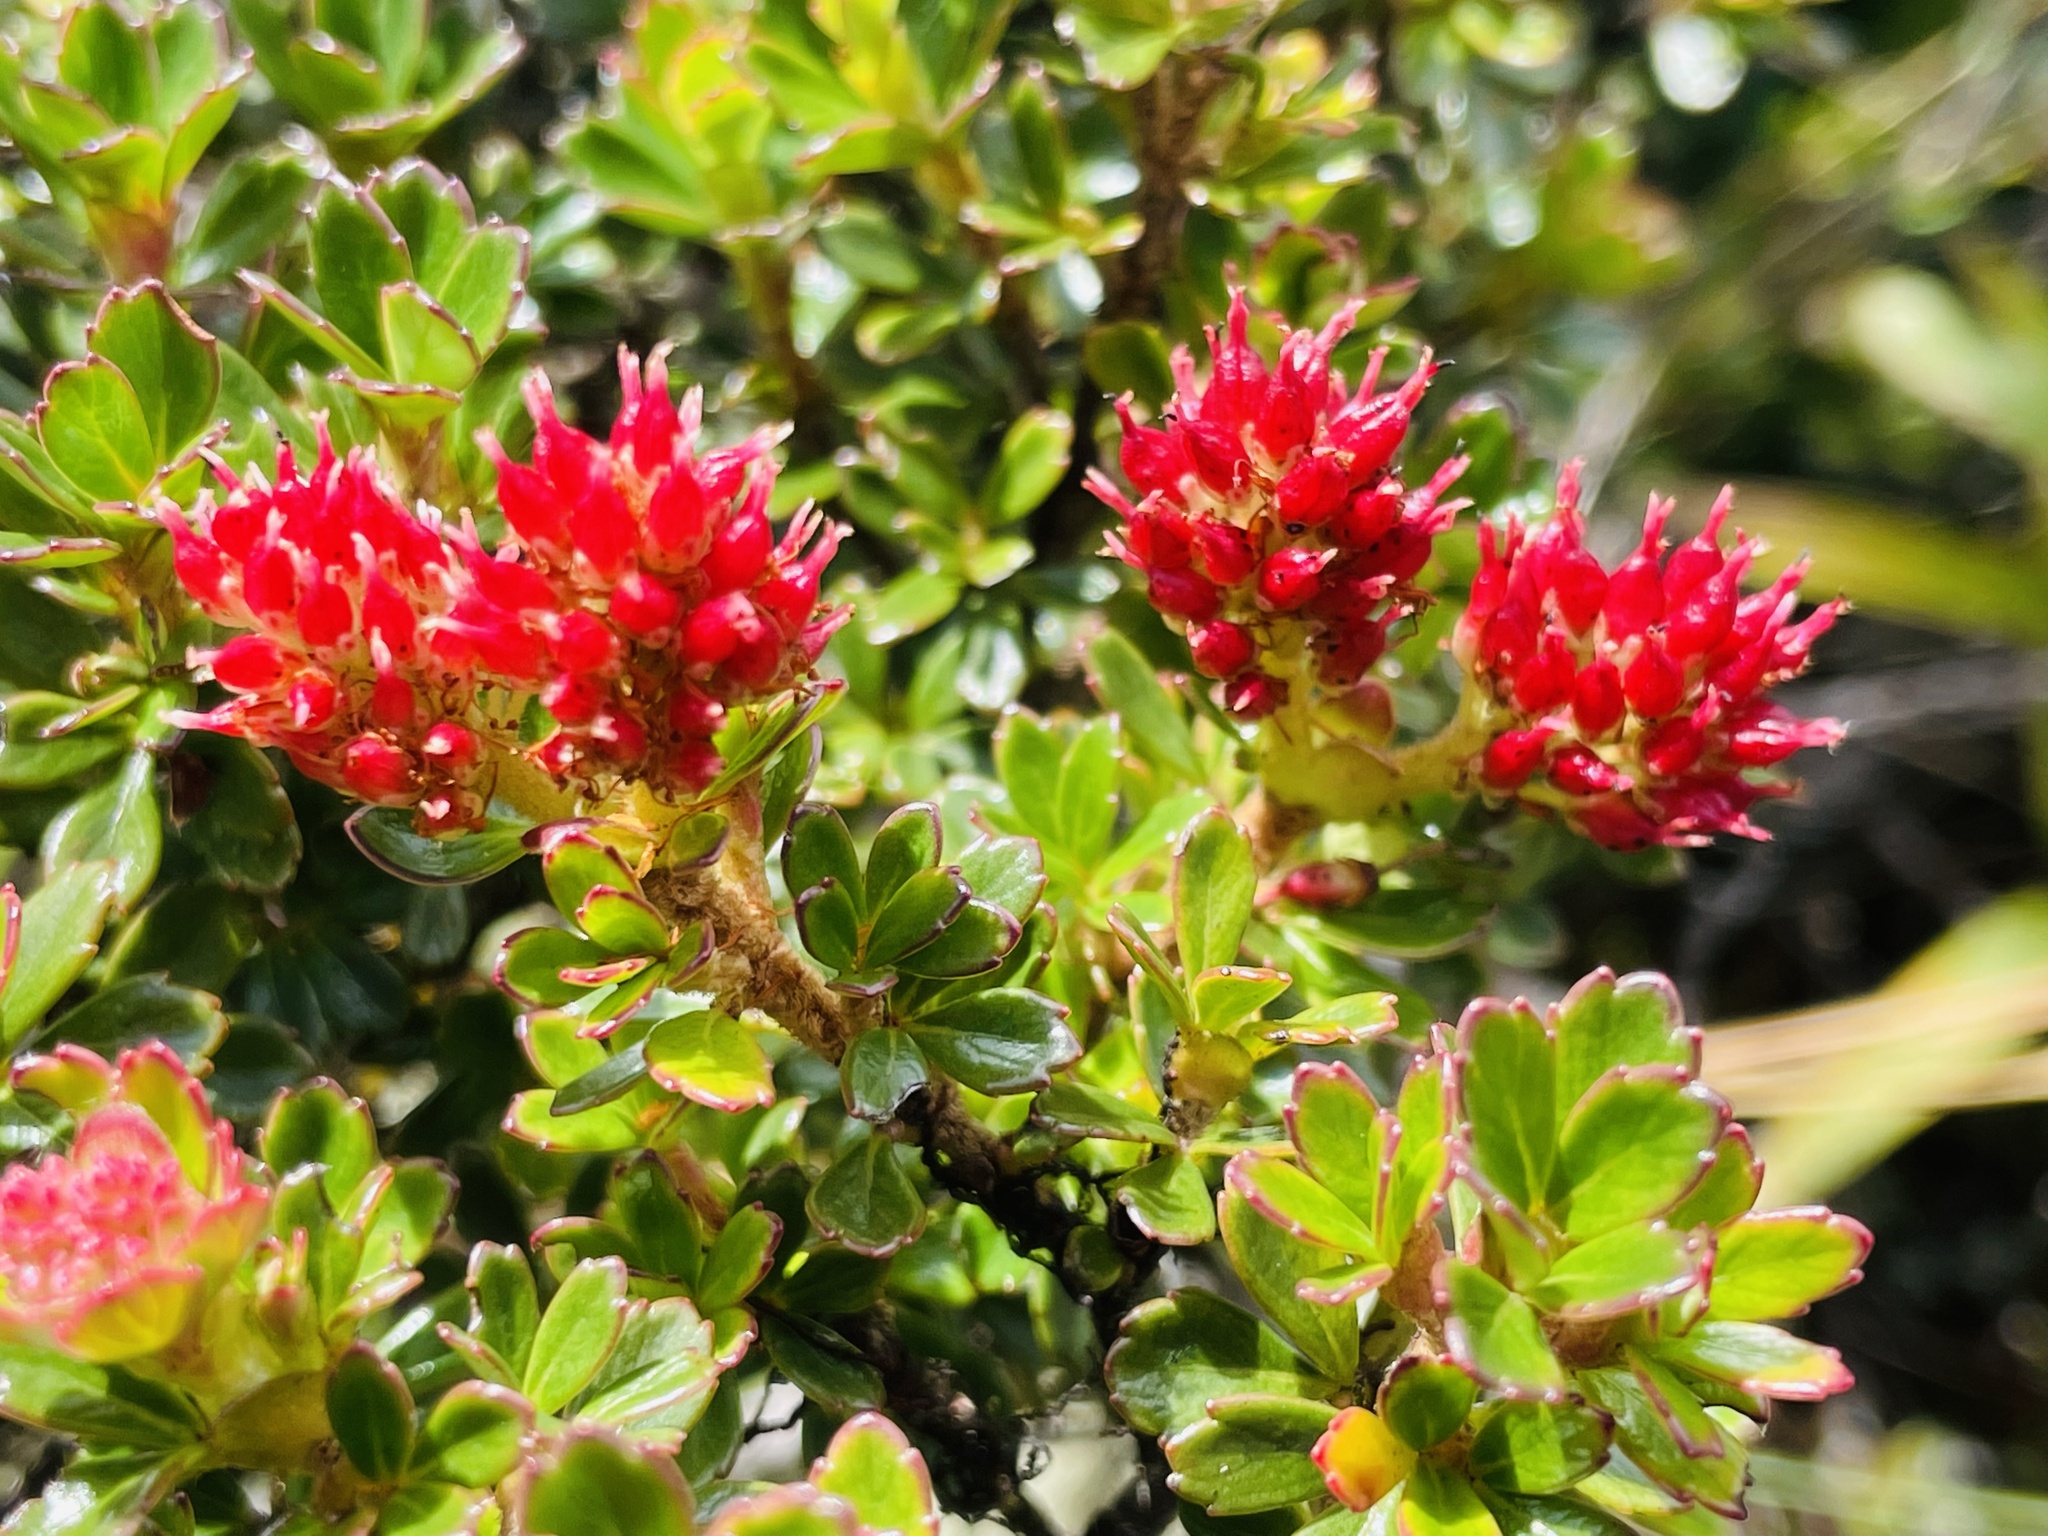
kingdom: Plantae
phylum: Tracheophyta
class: Magnoliopsida
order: Oxalidales
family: Cunoniaceae
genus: Weinmannia
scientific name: Weinmannia cochensis
